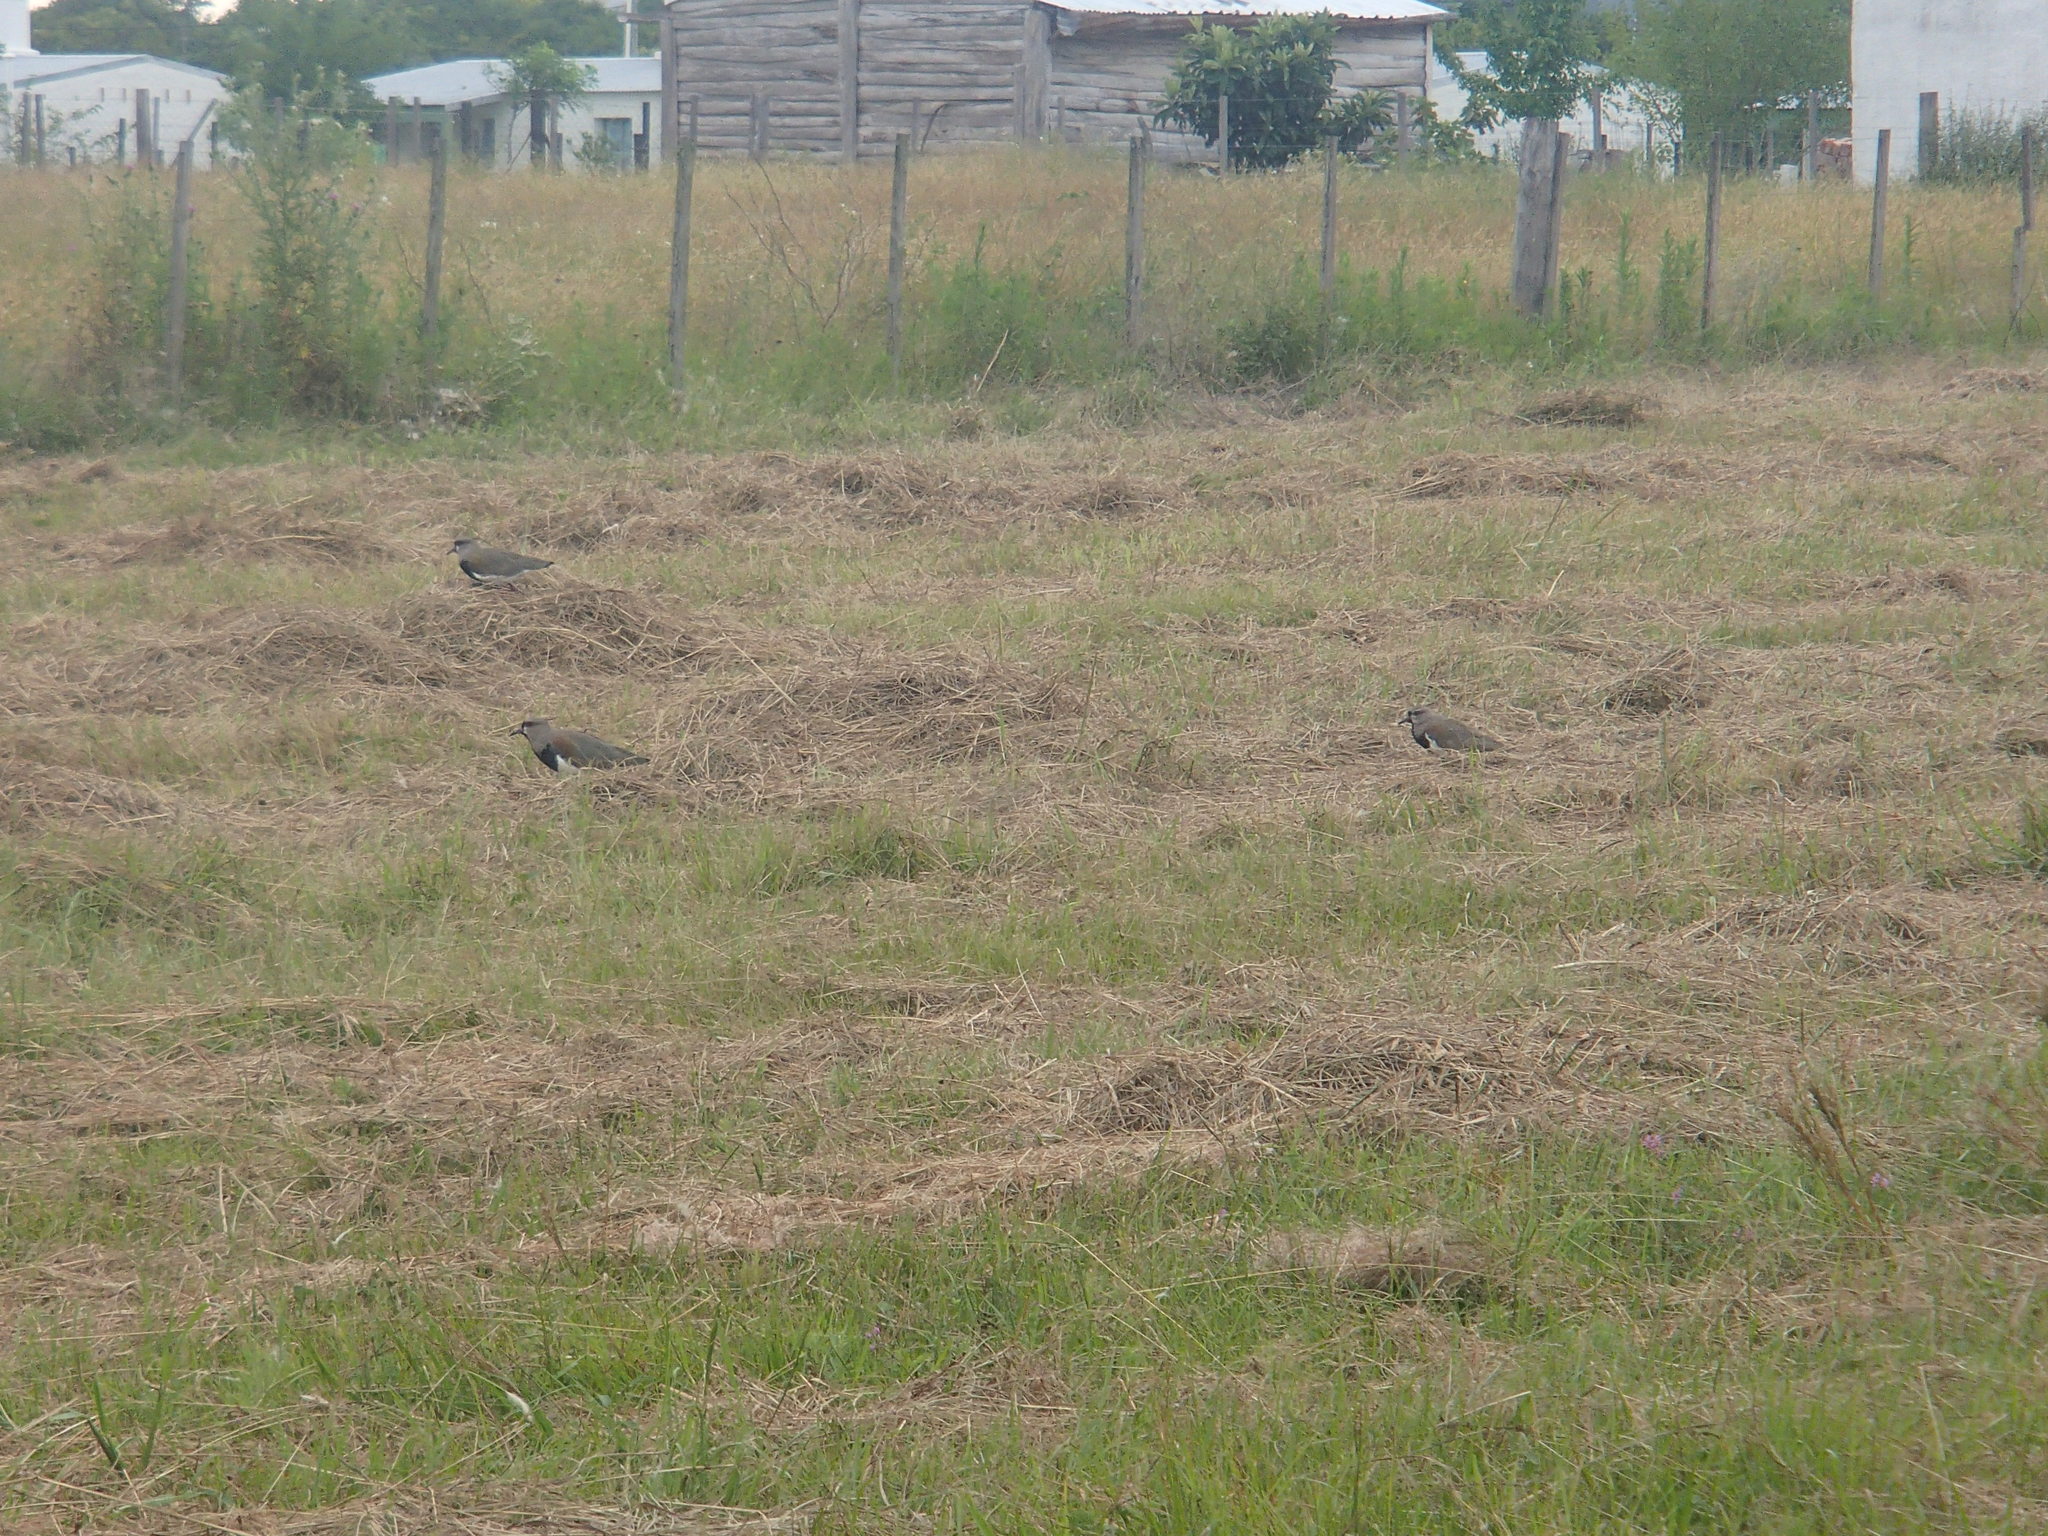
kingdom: Animalia
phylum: Chordata
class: Aves
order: Charadriiformes
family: Charadriidae
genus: Vanellus
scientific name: Vanellus chilensis
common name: Southern lapwing
